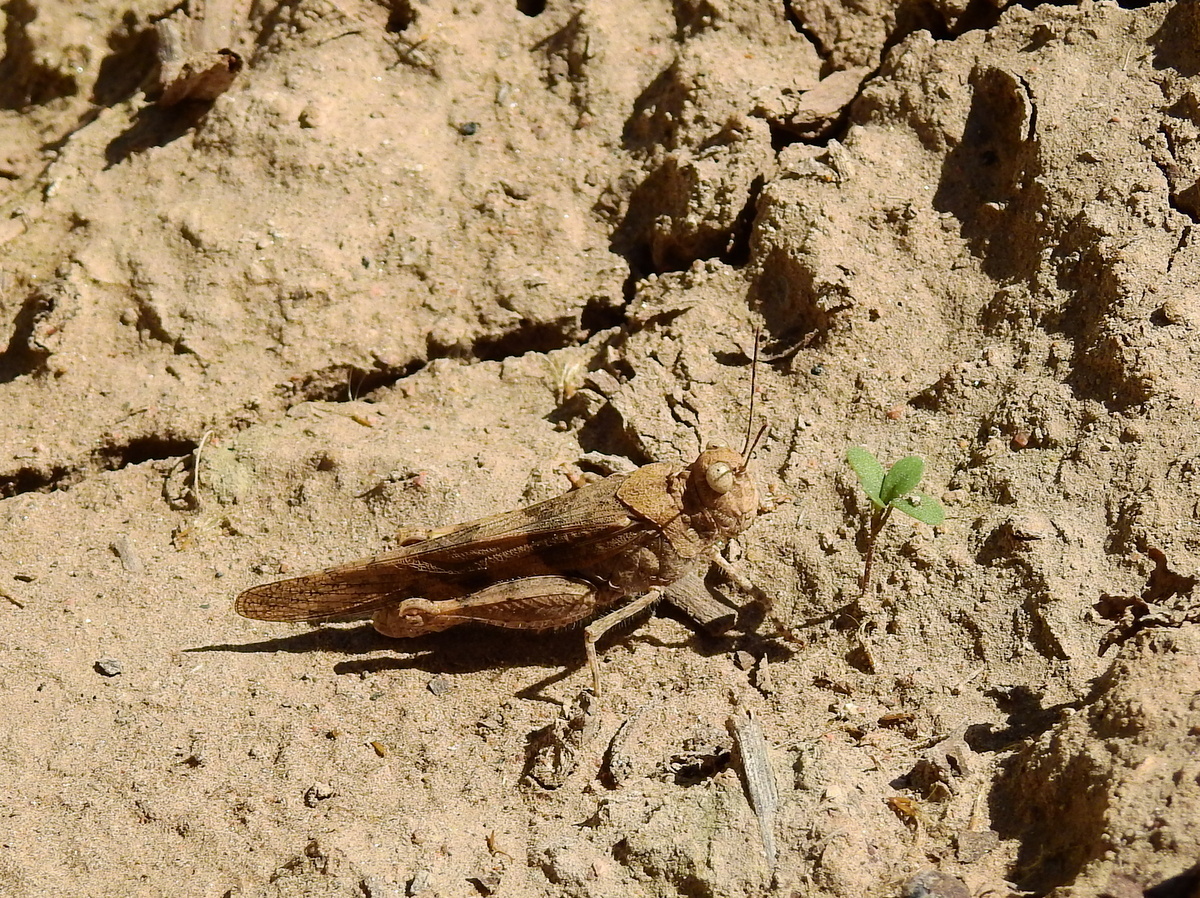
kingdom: Animalia
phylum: Arthropoda
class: Insecta
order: Orthoptera
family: Acrididae
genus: Trimerotropis
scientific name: Trimerotropis pallidipennis
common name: Pallid-winged grasshopper
